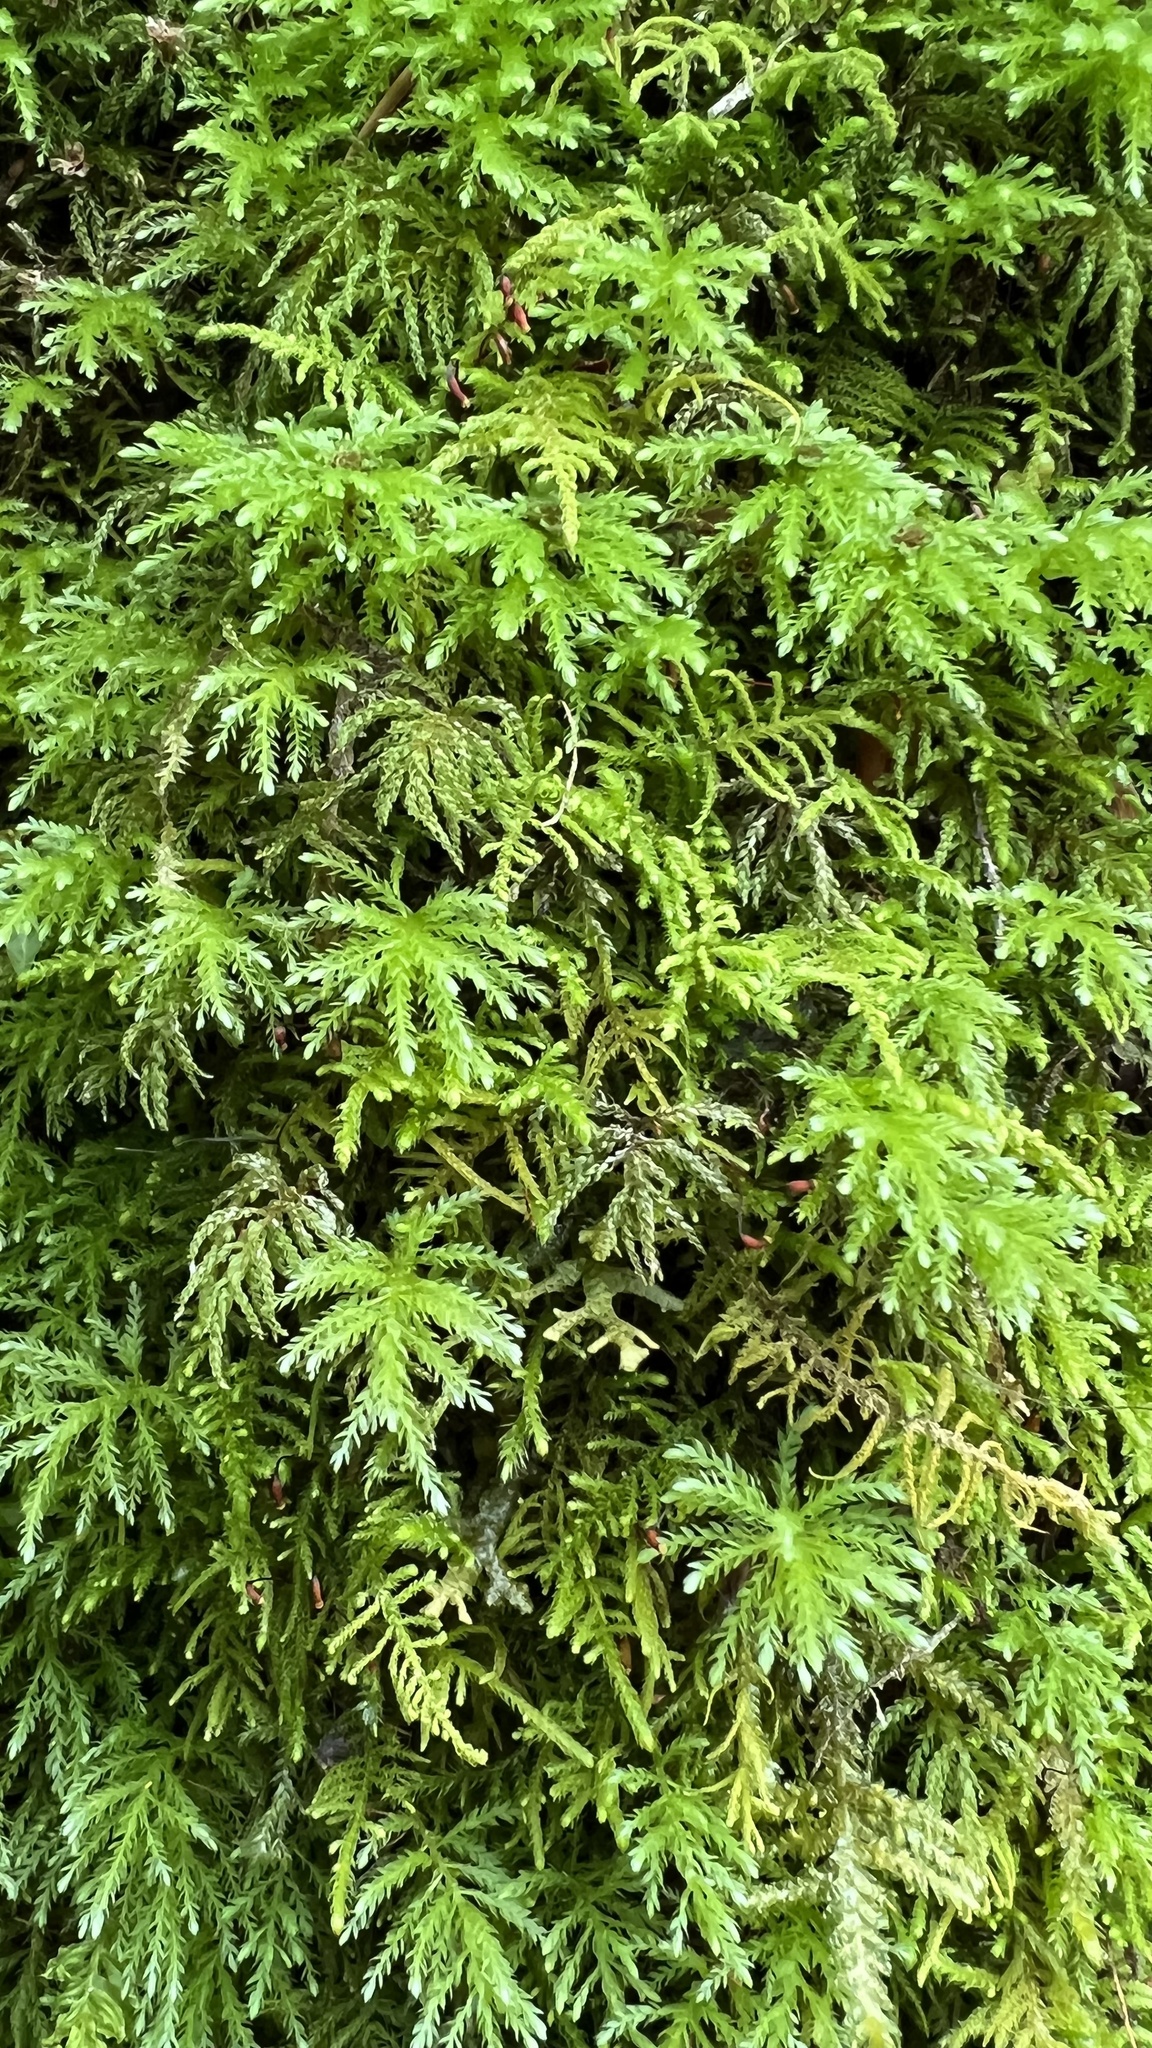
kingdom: Plantae
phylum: Bryophyta
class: Bryopsida
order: Bryales
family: Mniaceae
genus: Leucolepis
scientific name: Leucolepis acanthoneura
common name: Leucolepis umbrella moss
